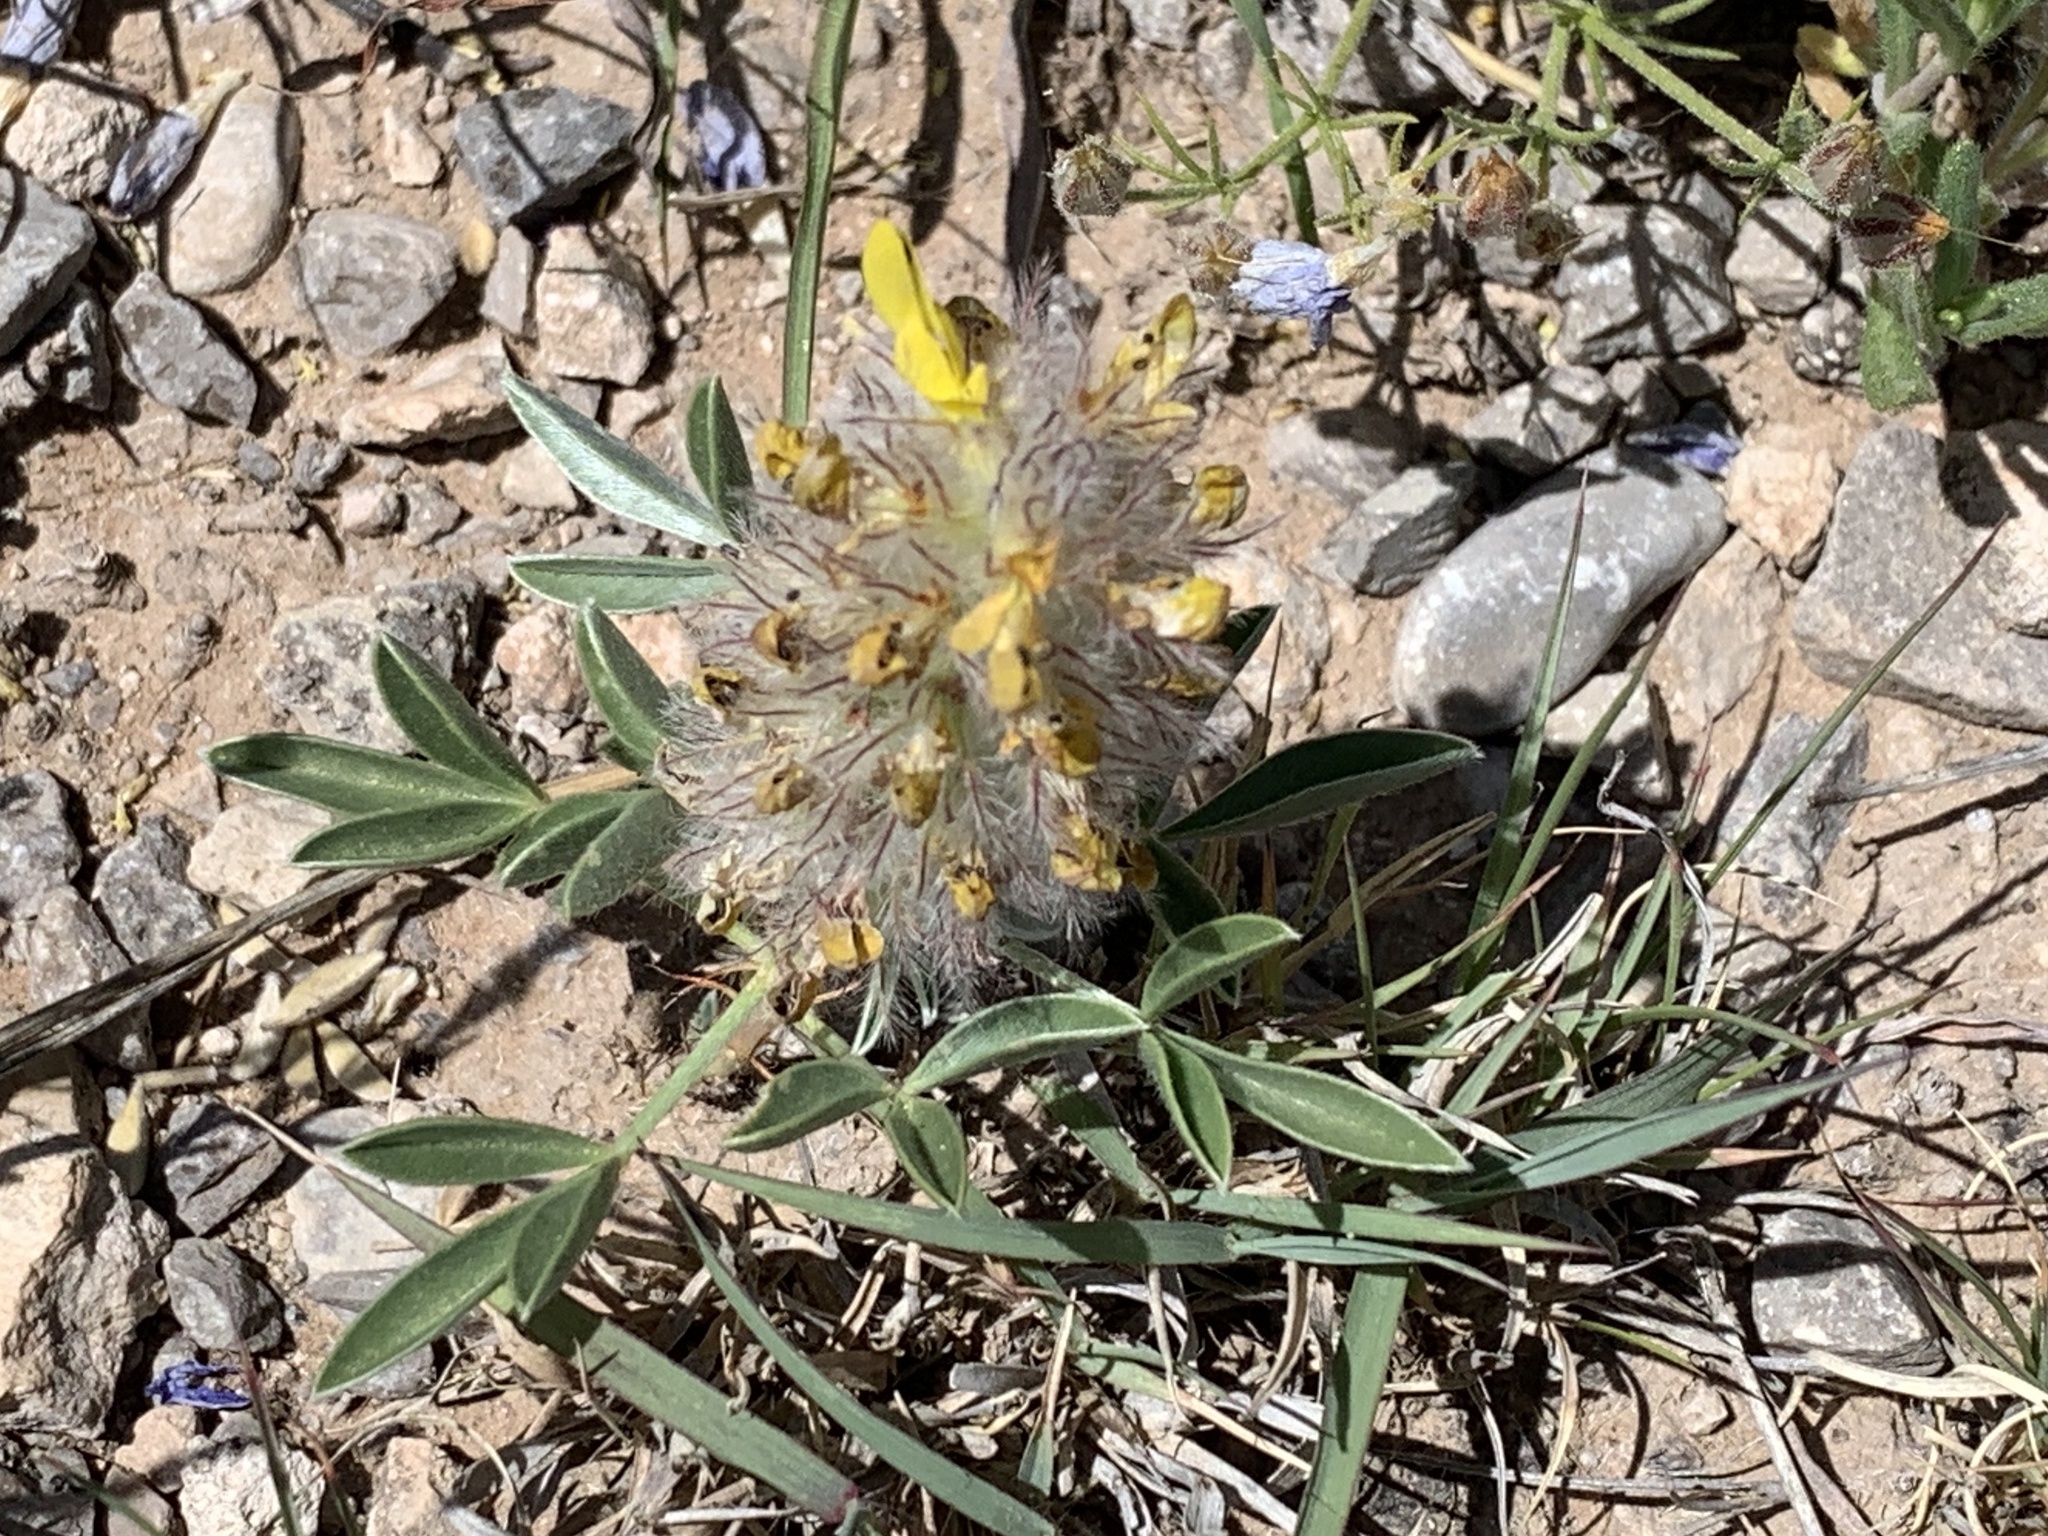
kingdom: Plantae
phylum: Tracheophyta
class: Magnoliopsida
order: Fabales
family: Fabaceae
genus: Dalea
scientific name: Dalea jamesii
